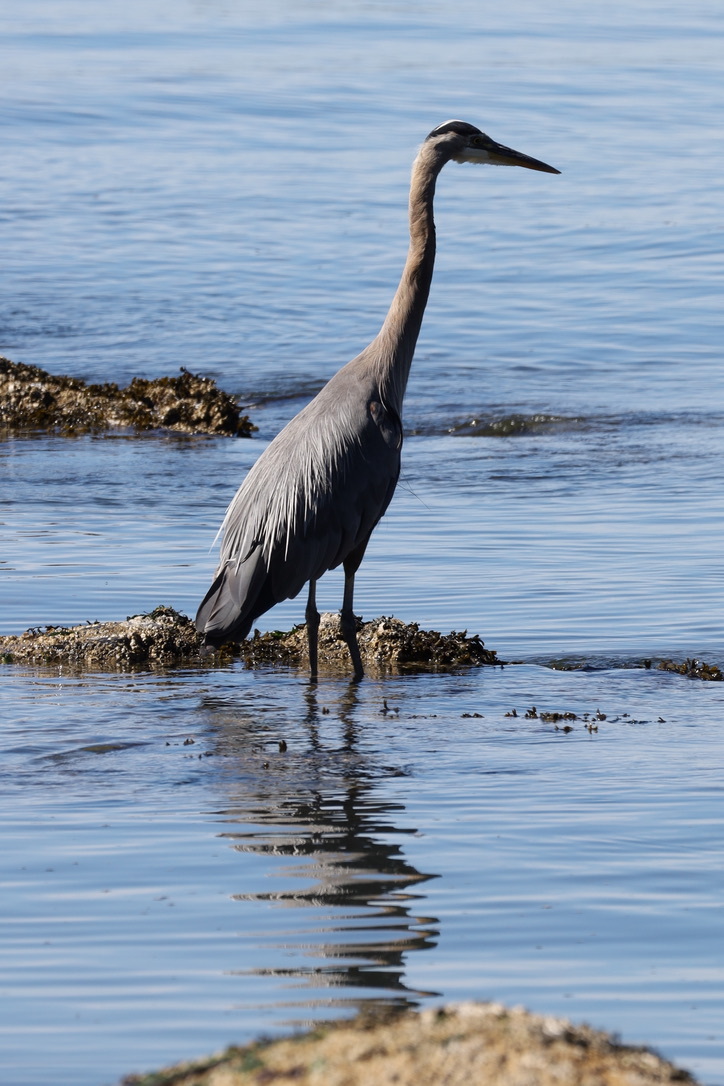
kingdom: Animalia
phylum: Chordata
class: Aves
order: Pelecaniformes
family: Ardeidae
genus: Ardea
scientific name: Ardea herodias
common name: Great blue heron
